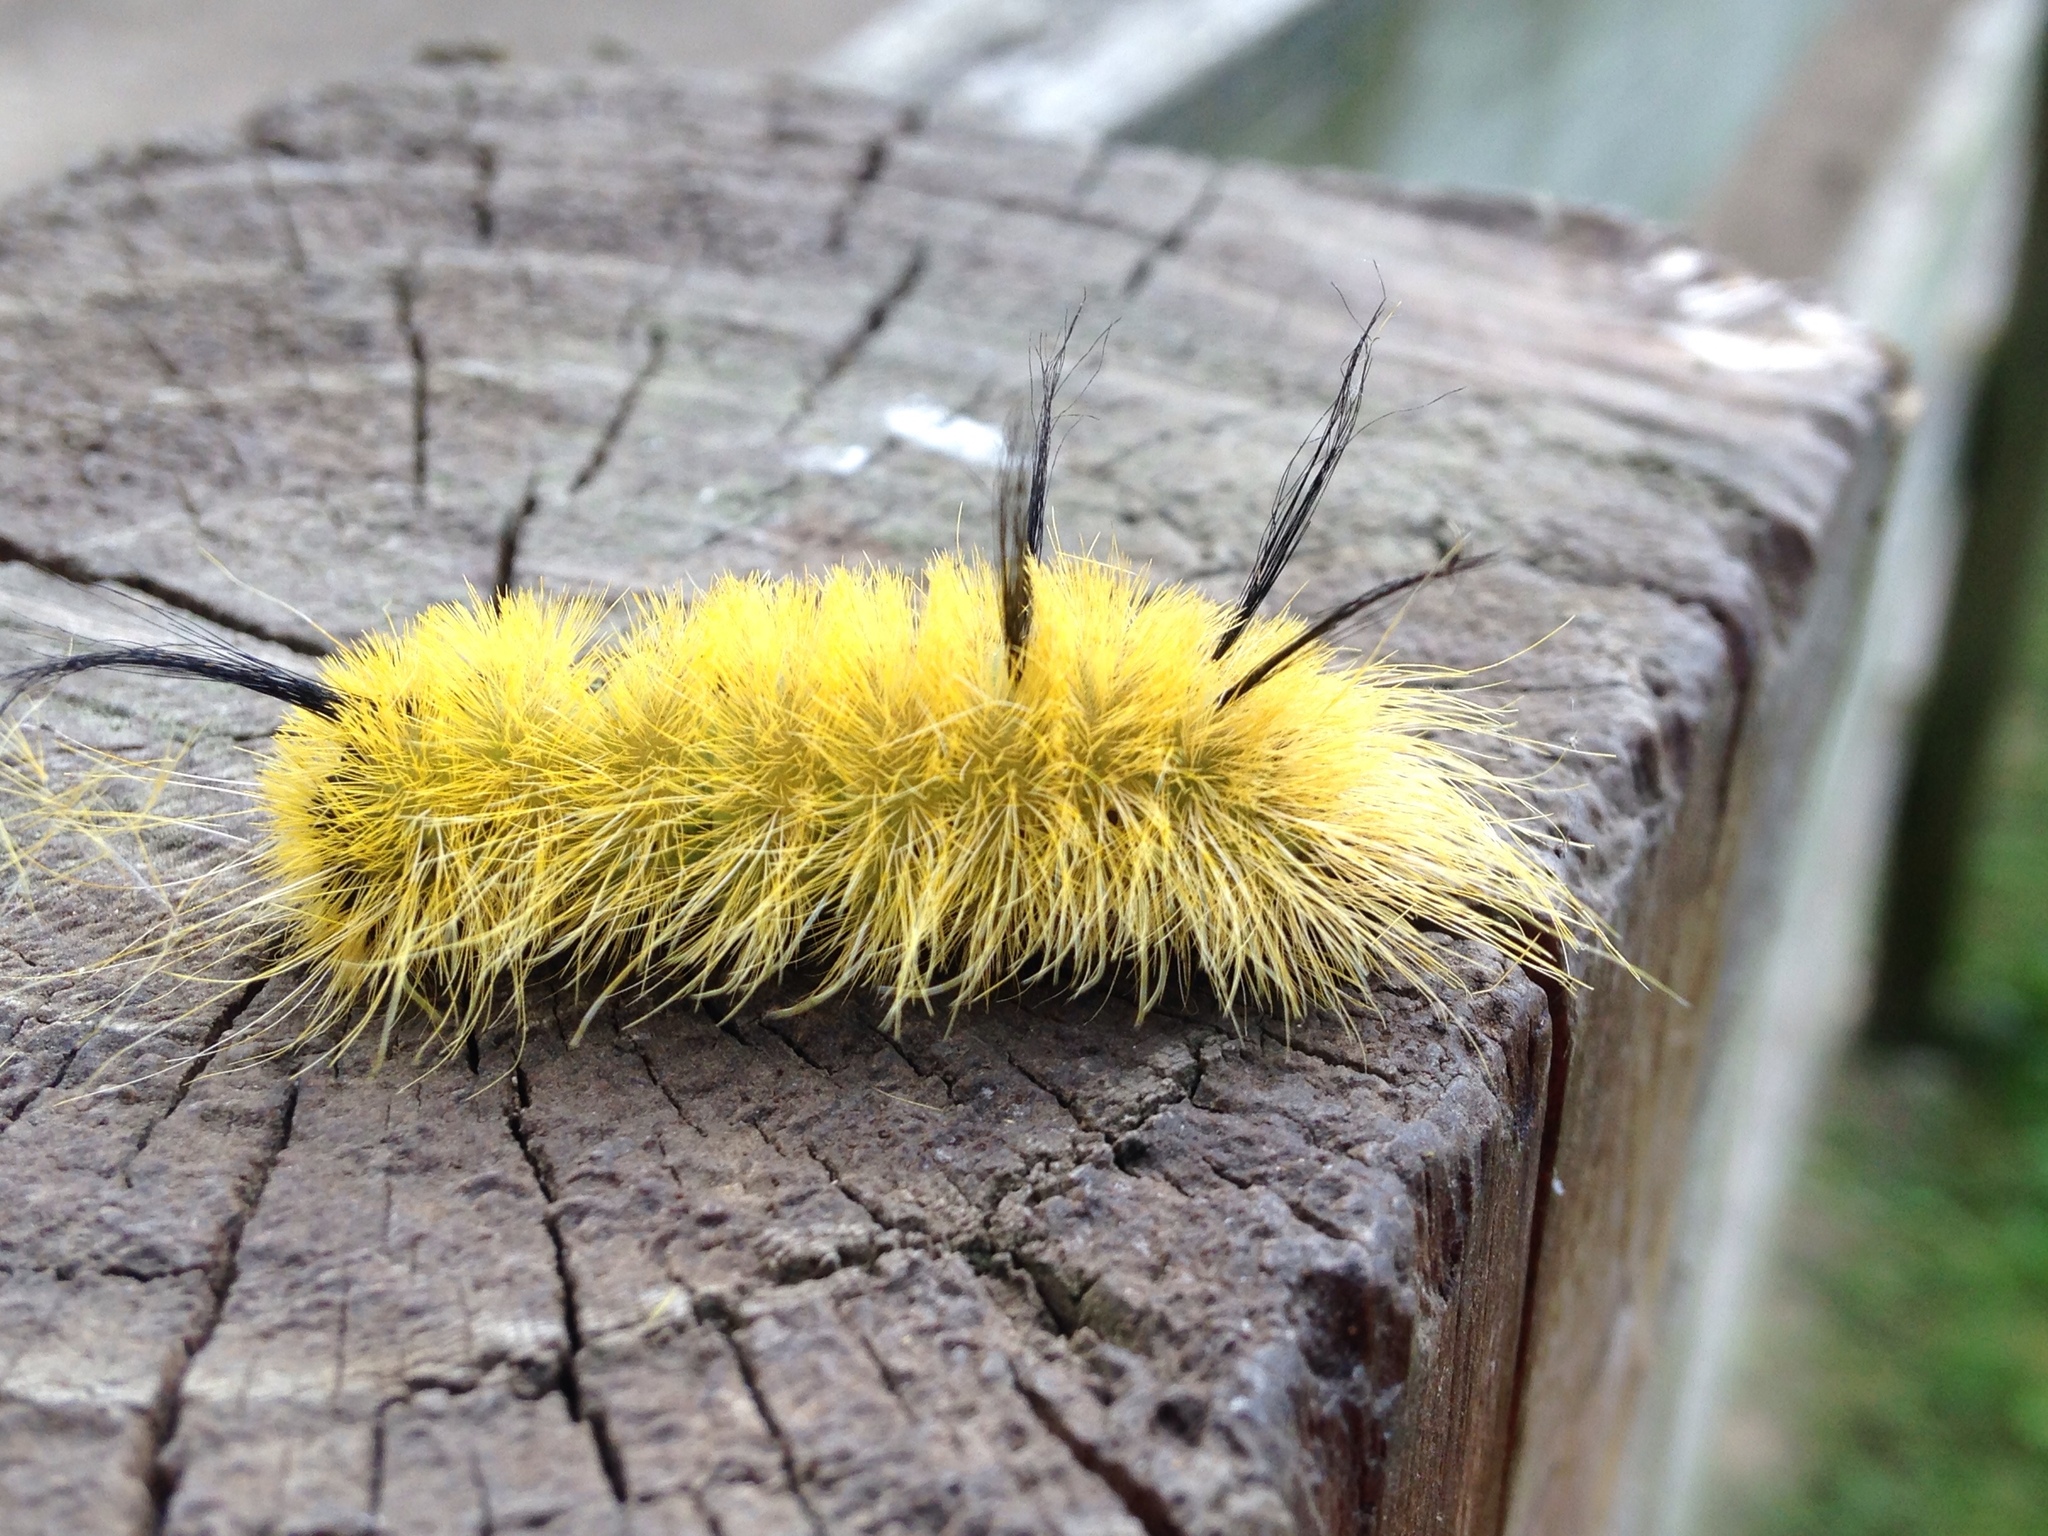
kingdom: Animalia
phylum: Arthropoda
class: Insecta
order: Lepidoptera
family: Noctuidae
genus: Acronicta
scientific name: Acronicta americana
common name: American dagger
